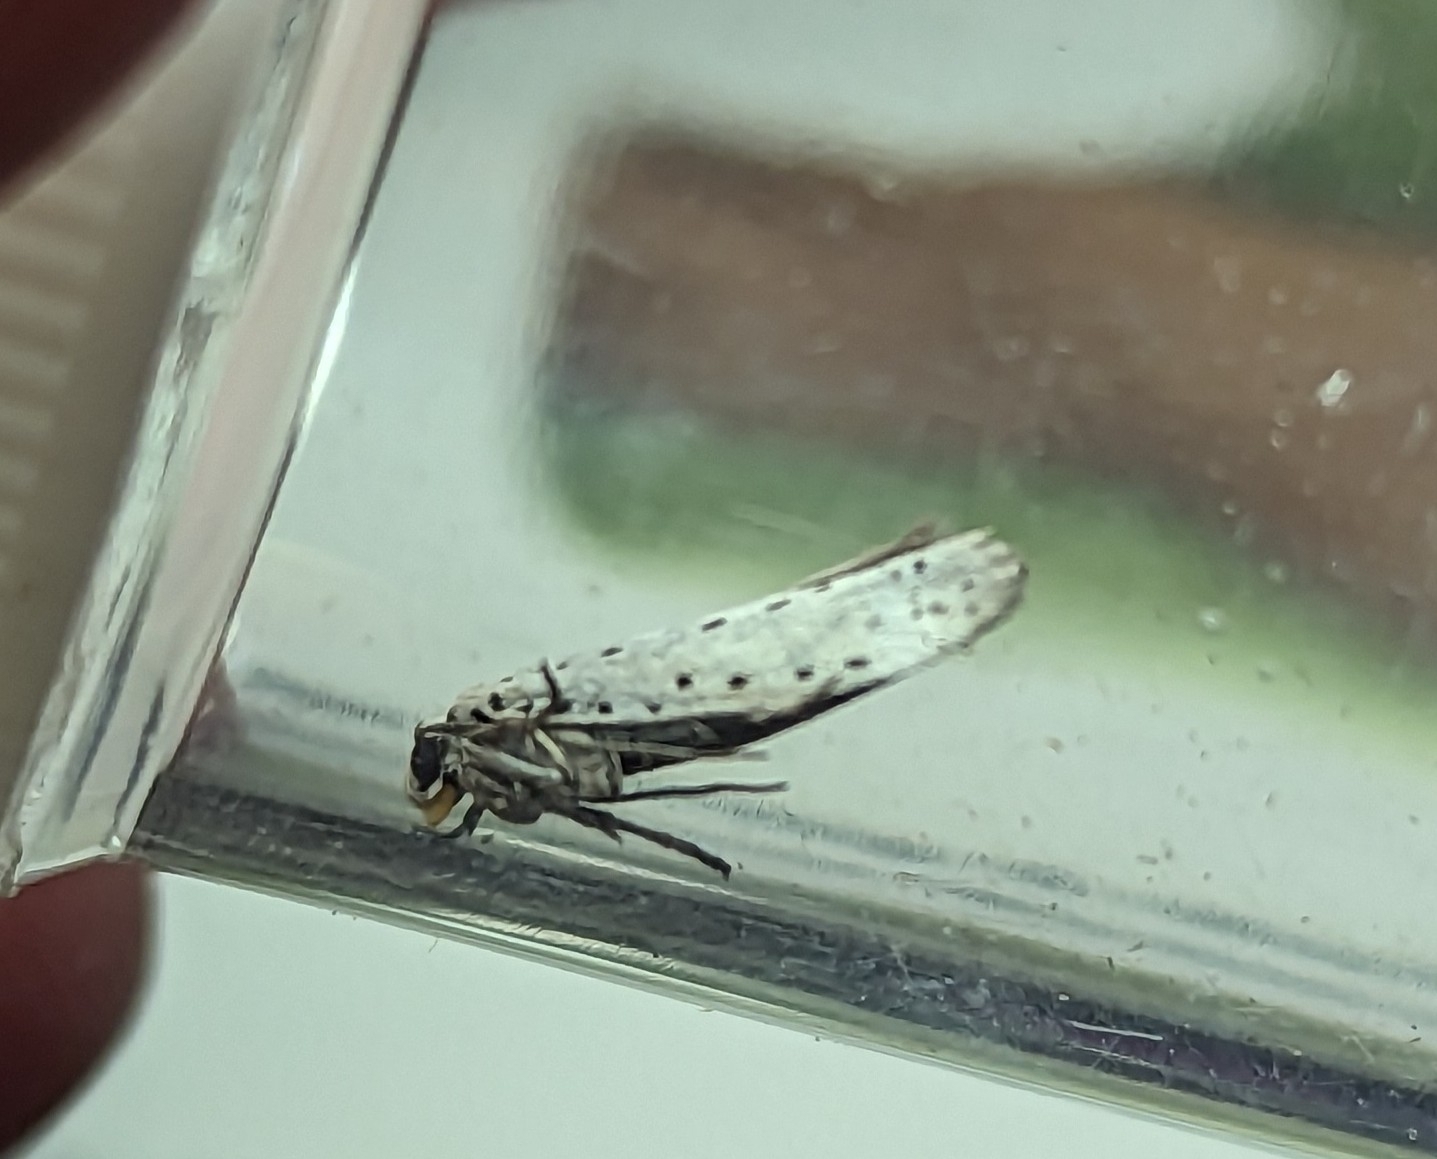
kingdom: Animalia
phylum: Arthropoda
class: Insecta
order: Lepidoptera
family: Yponomeutidae
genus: Yponomeuta
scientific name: Yponomeuta evonymella
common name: Bird-cherry ermine
